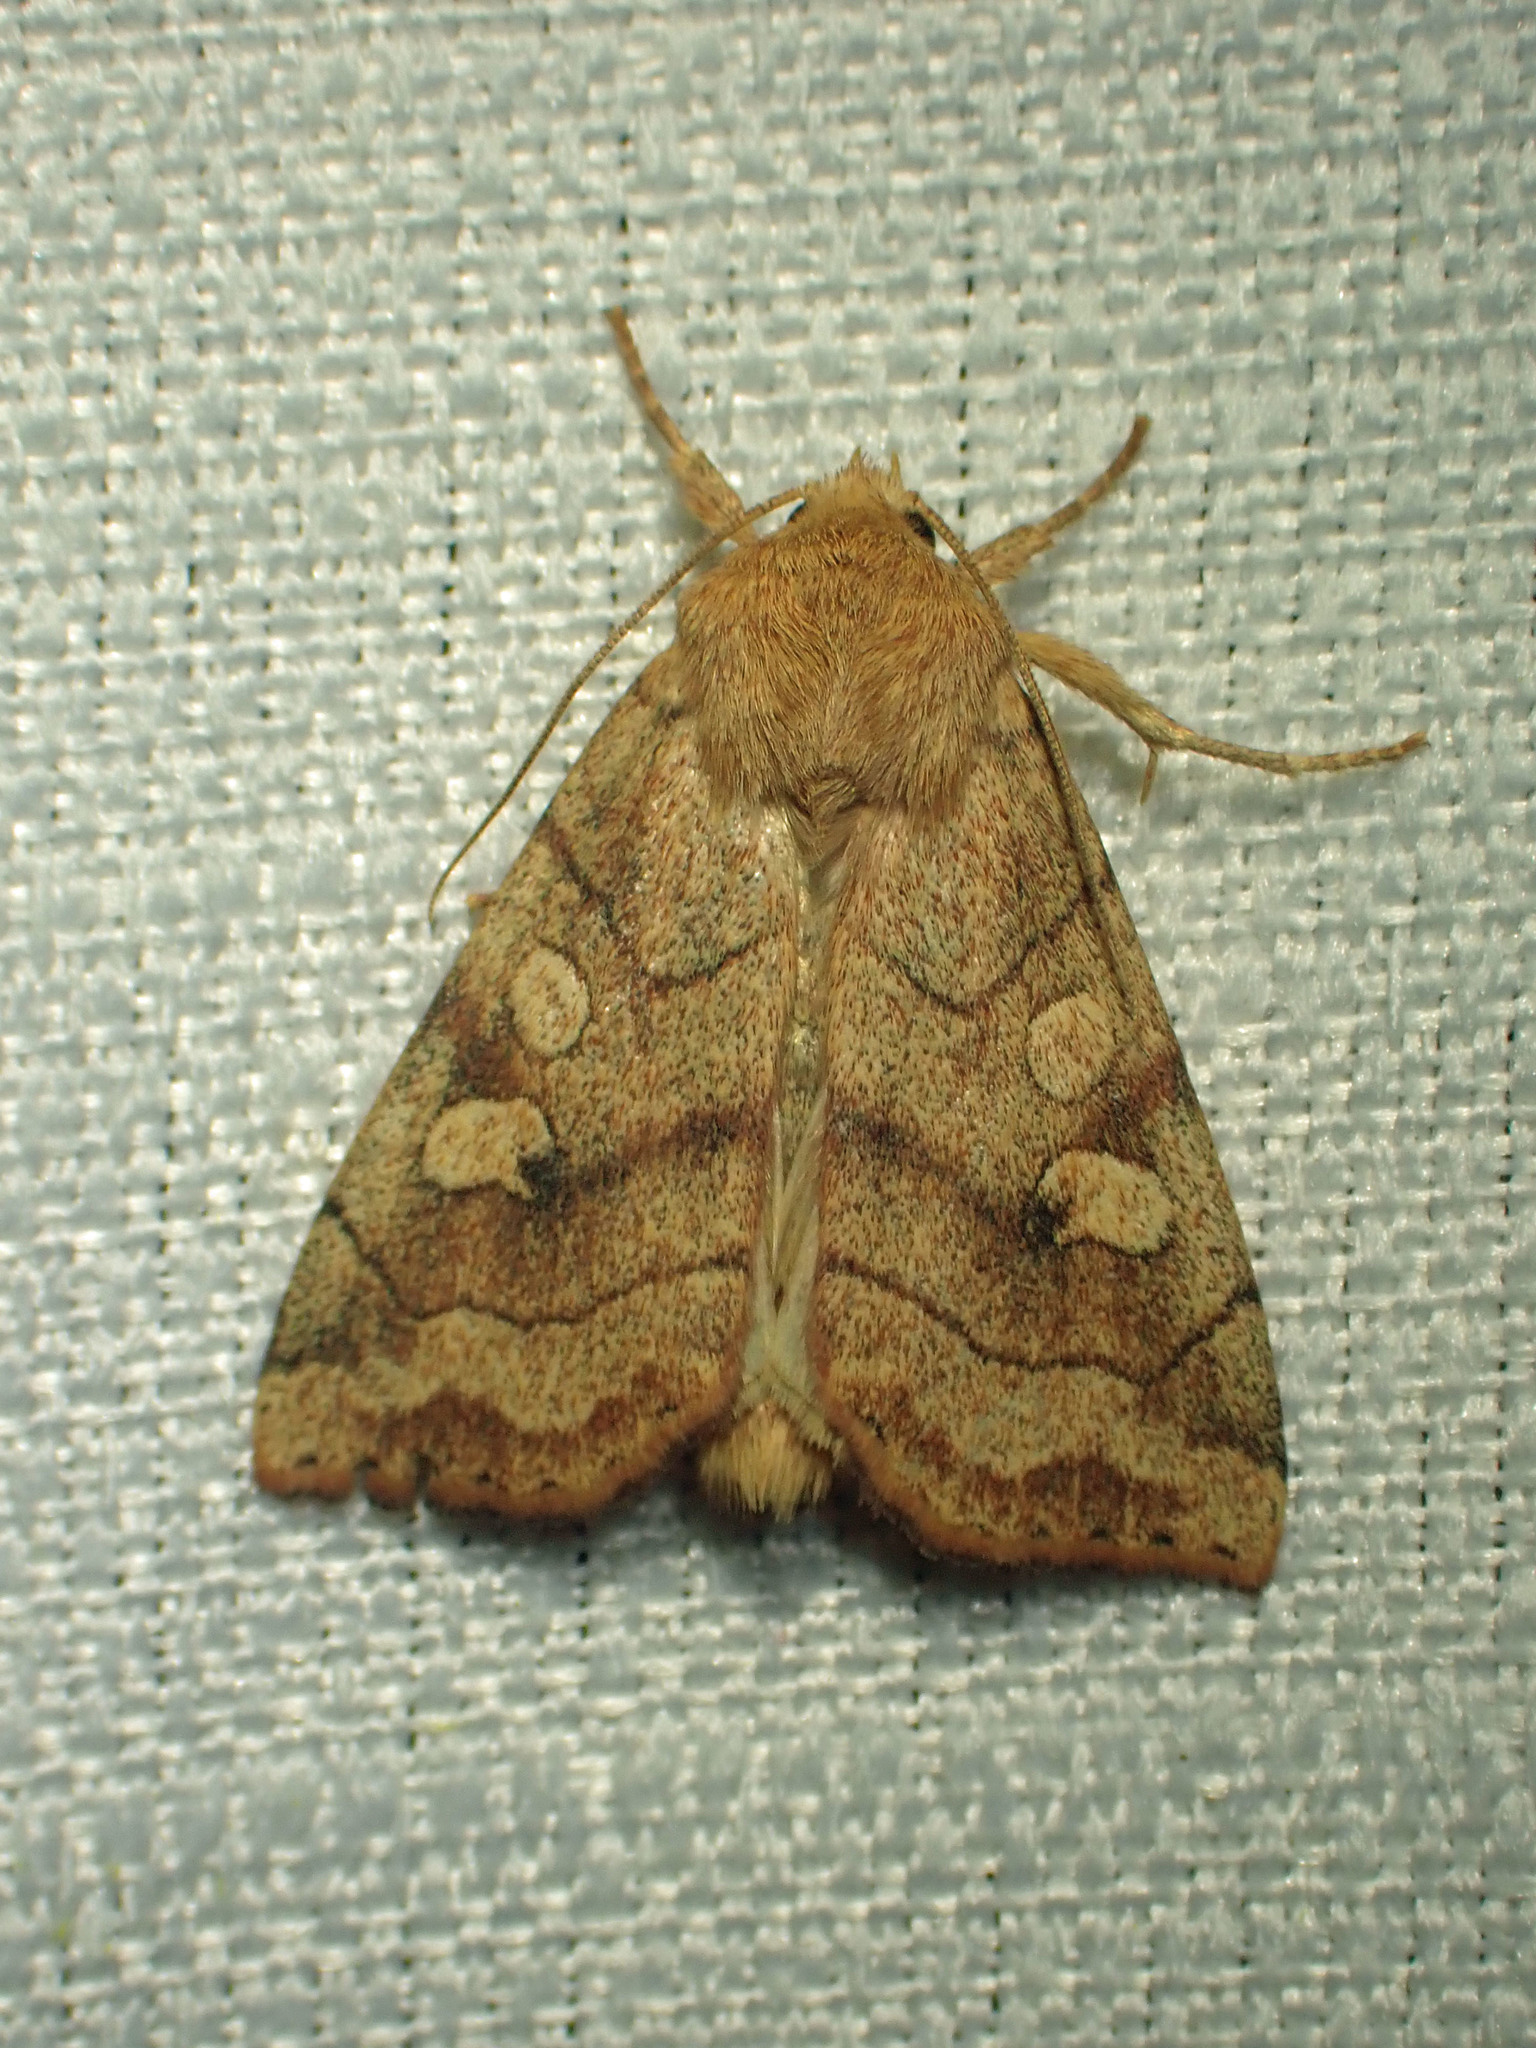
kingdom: Animalia
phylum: Arthropoda
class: Insecta
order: Lepidoptera
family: Noctuidae
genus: Enargia
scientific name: Enargia infumata
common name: Smoked sallow
